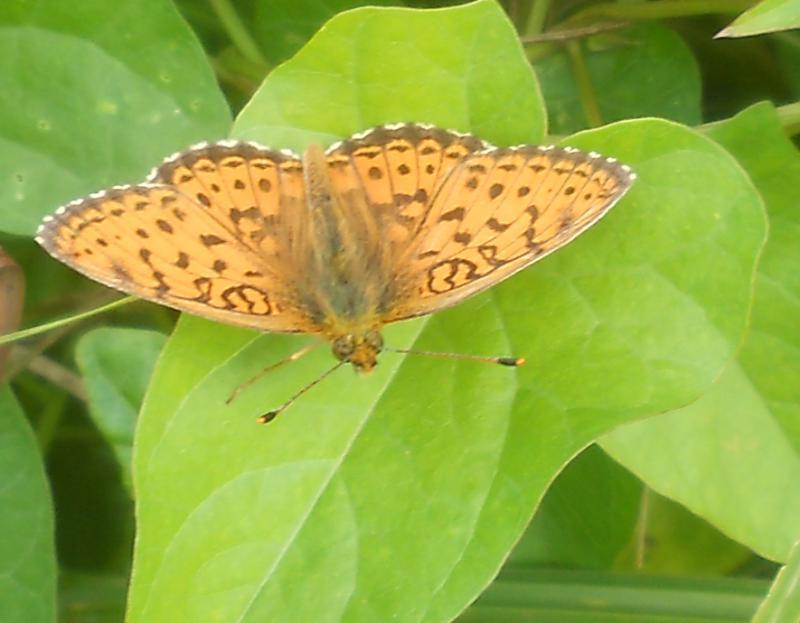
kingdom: Animalia
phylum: Arthropoda
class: Insecta
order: Lepidoptera
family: Nymphalidae
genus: Brenthis
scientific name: Brenthis ino
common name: Lesser marbled fritillary
